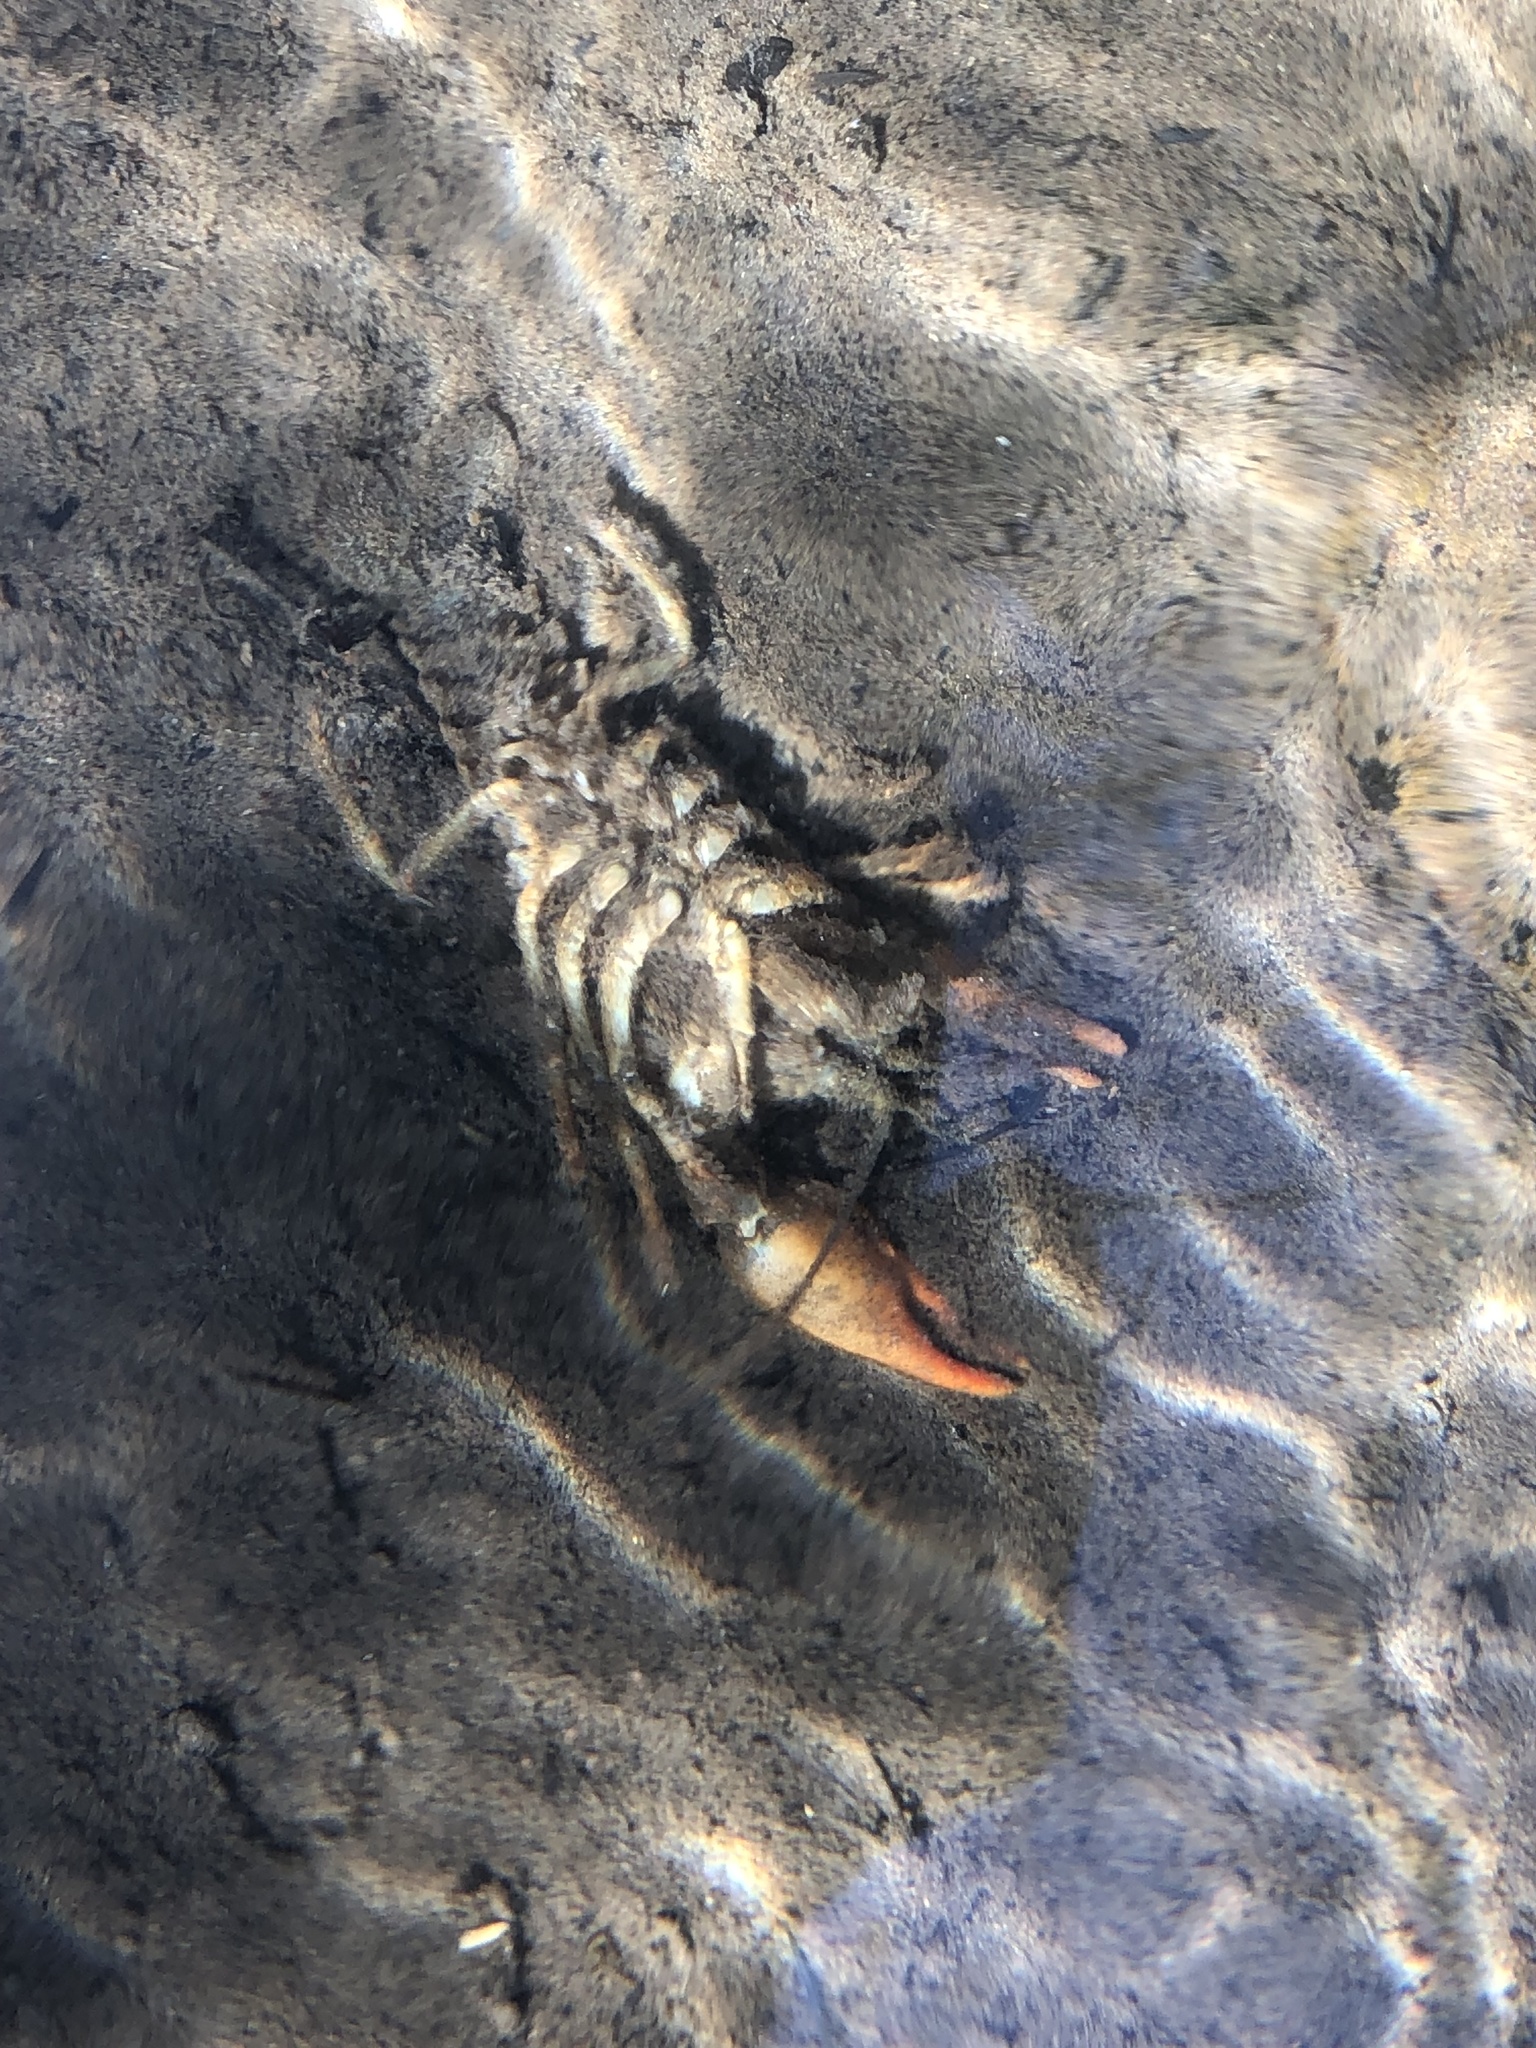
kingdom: Animalia
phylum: Arthropoda
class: Malacostraca
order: Decapoda
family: Astacidae
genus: Pacifastacus
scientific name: Pacifastacus leniusculus
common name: Signal crayfish
